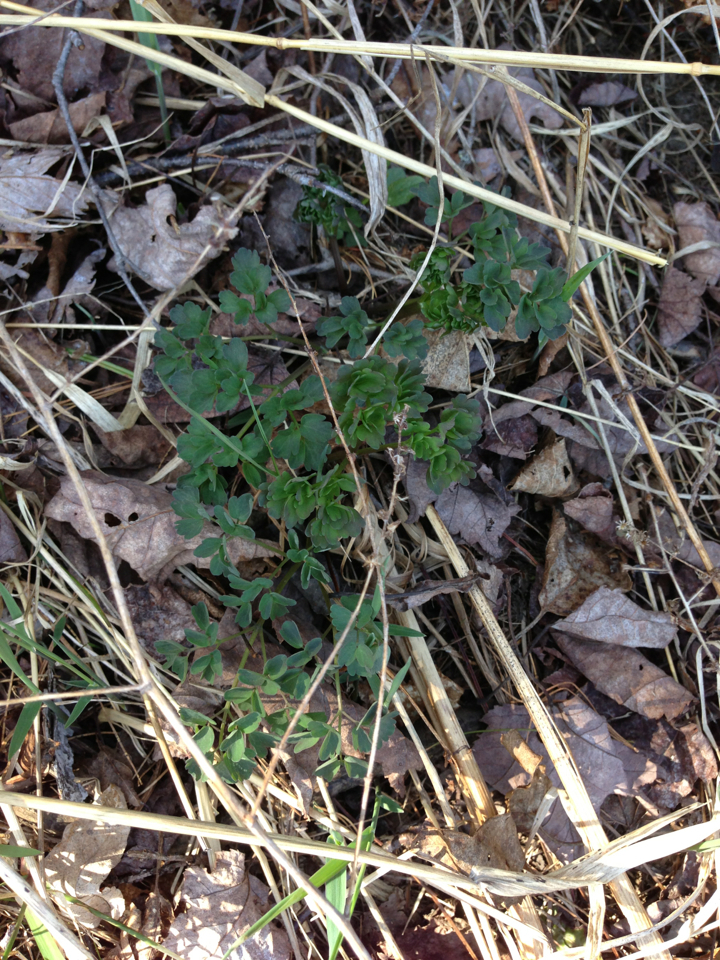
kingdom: Plantae
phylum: Tracheophyta
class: Magnoliopsida
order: Ranunculales
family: Ranunculaceae
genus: Thalictrum
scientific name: Thalictrum dioicum
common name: Early meadow-rue
